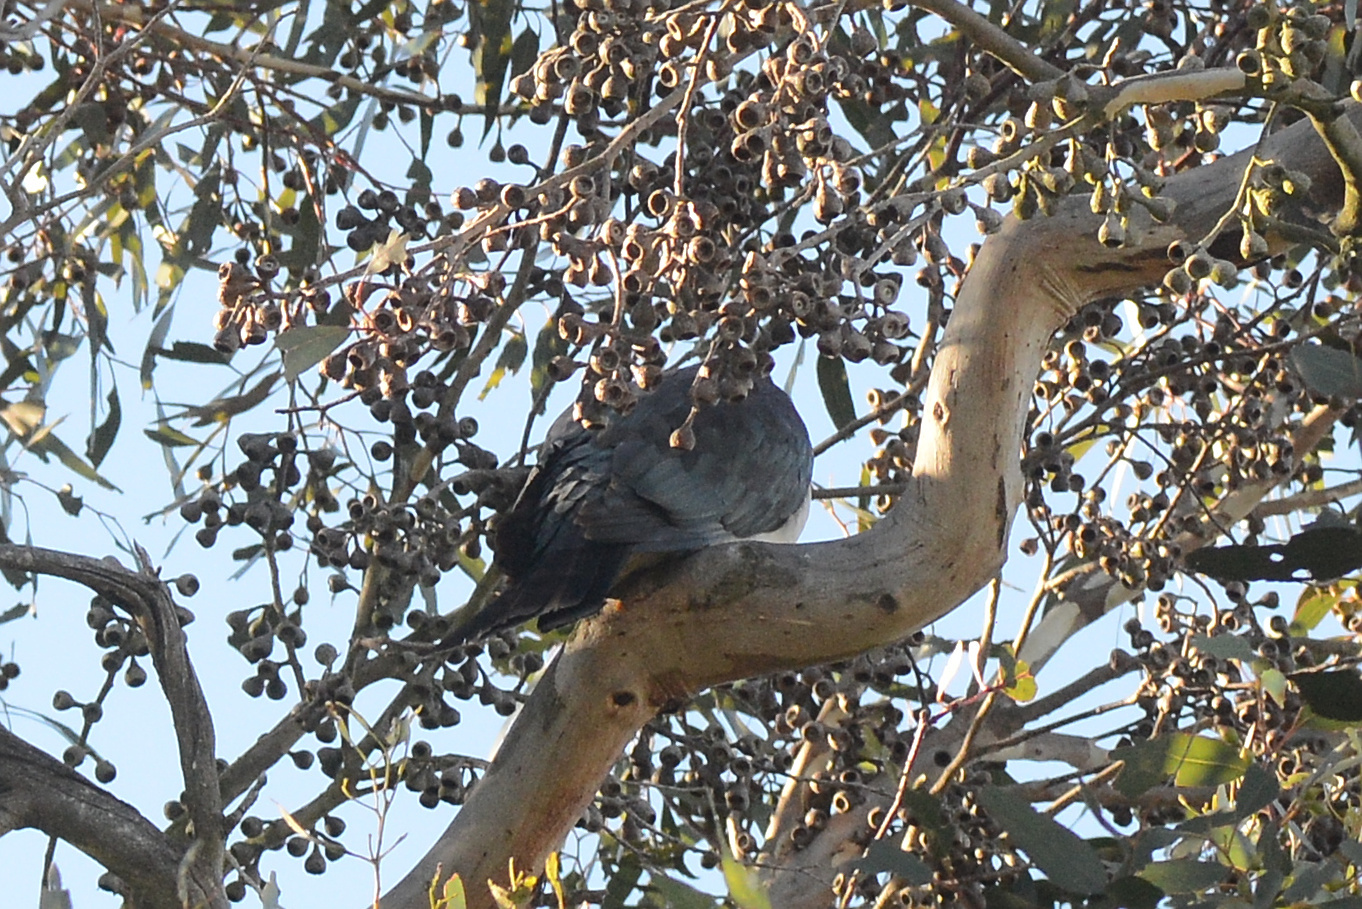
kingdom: Animalia
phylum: Chordata
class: Aves
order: Columbiformes
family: Columbidae
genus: Hemiphaga
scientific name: Hemiphaga novaeseelandiae
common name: New zealand pigeon
